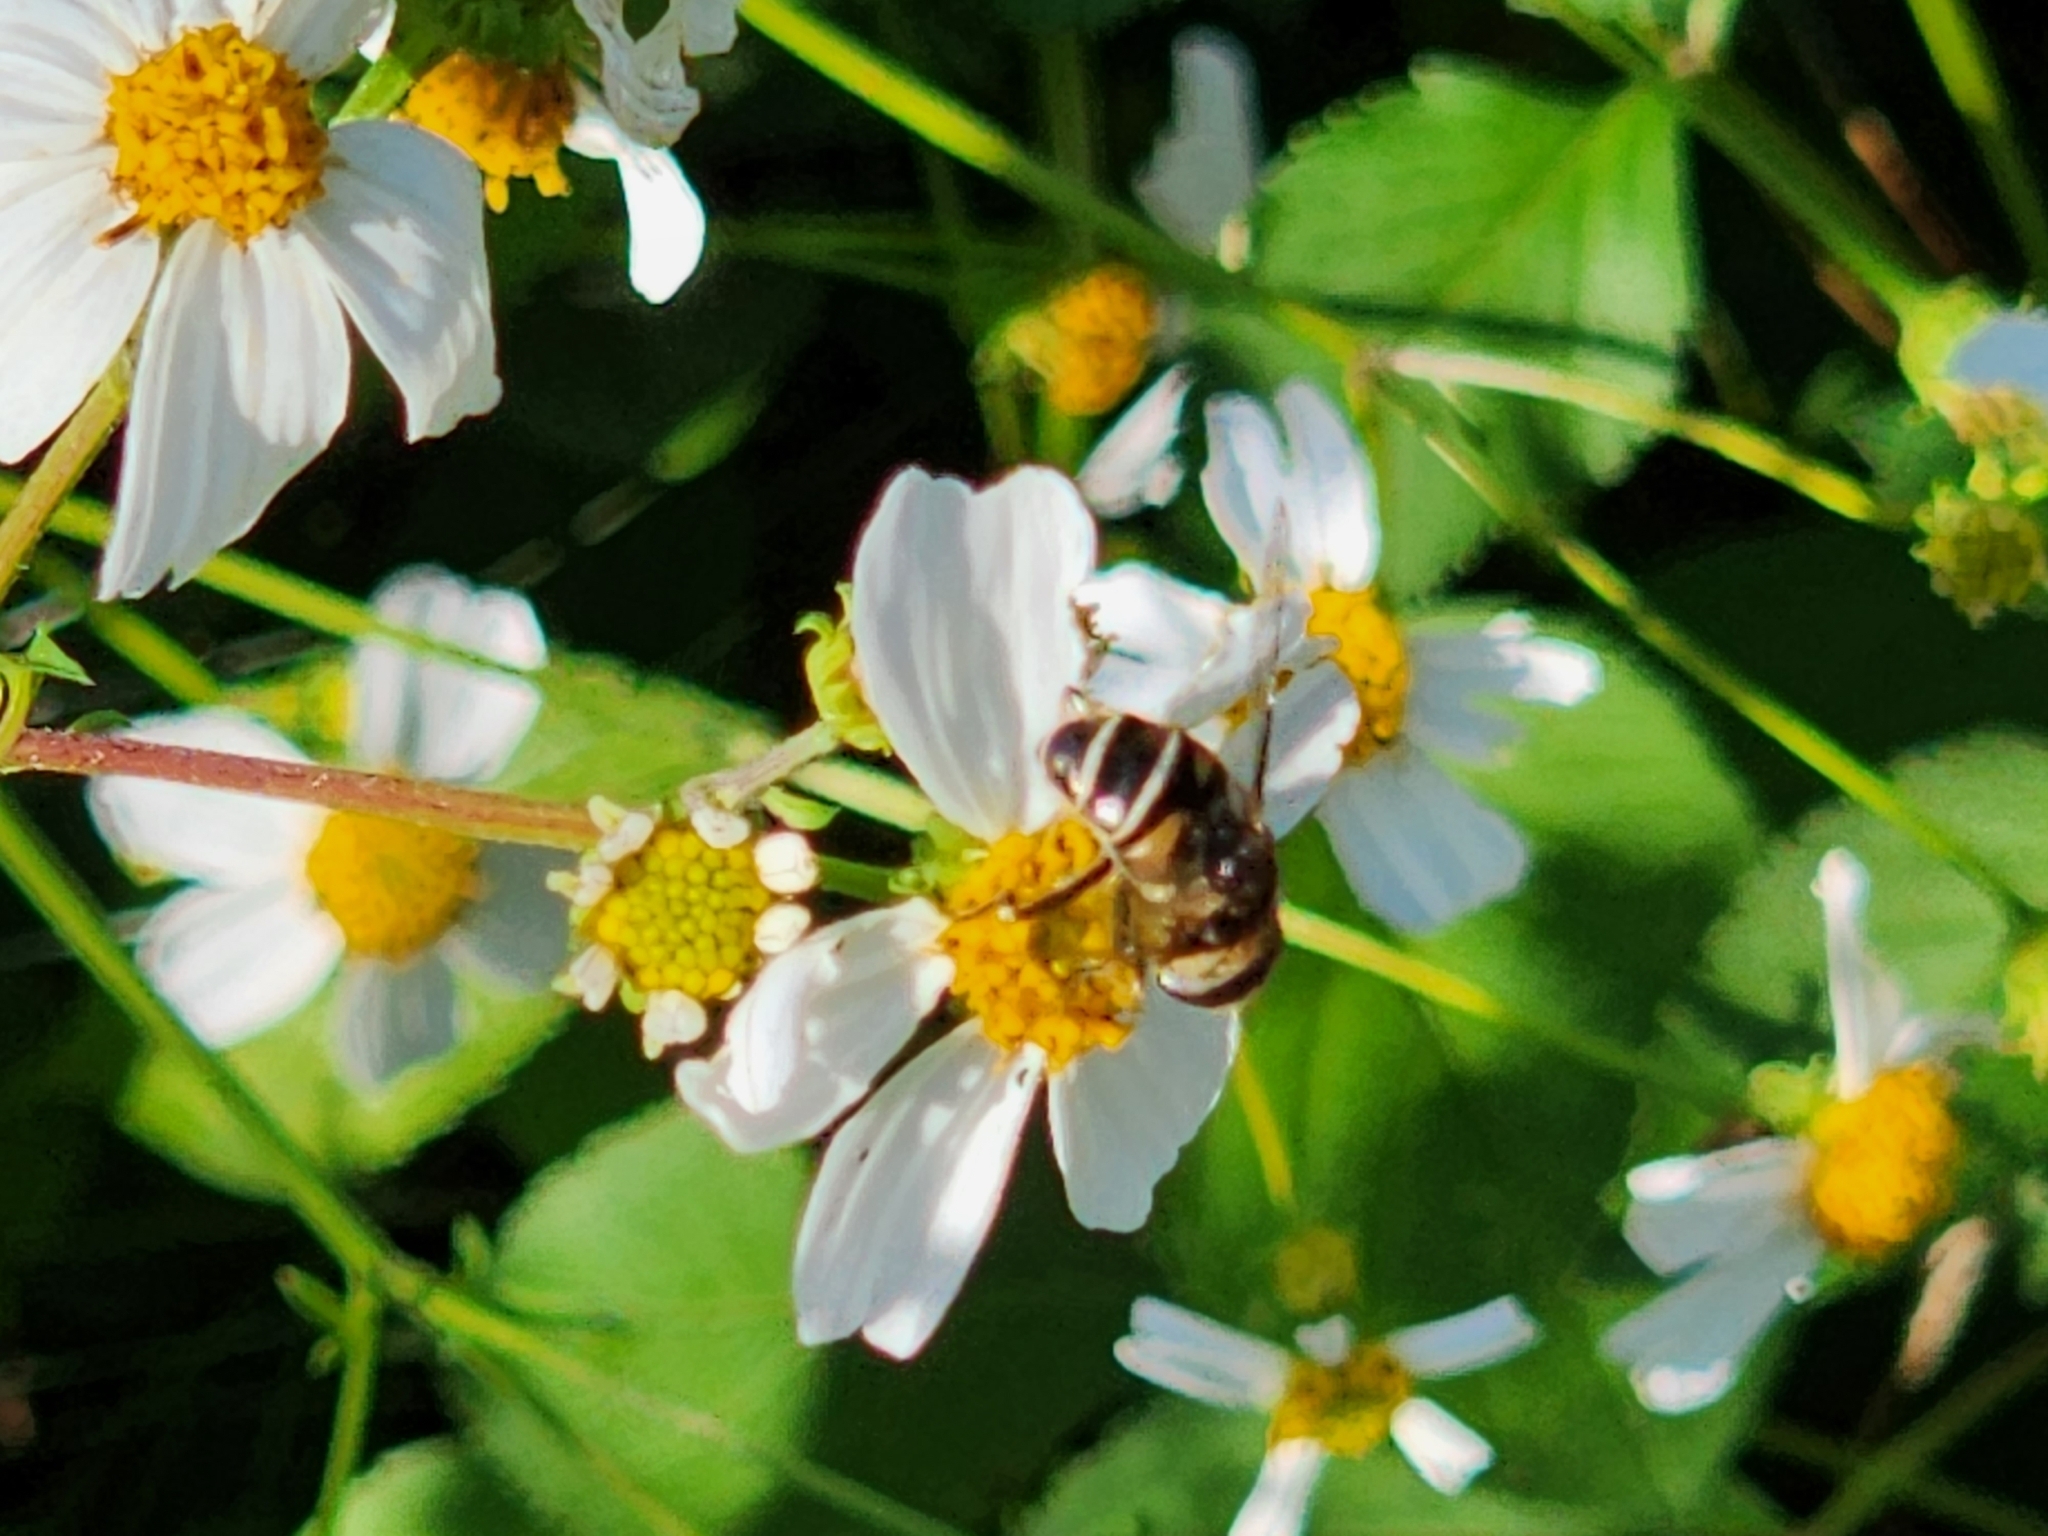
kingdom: Animalia
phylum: Arthropoda
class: Insecta
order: Diptera
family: Syrphidae
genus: Eristalis
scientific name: Eristalis dimidiata
